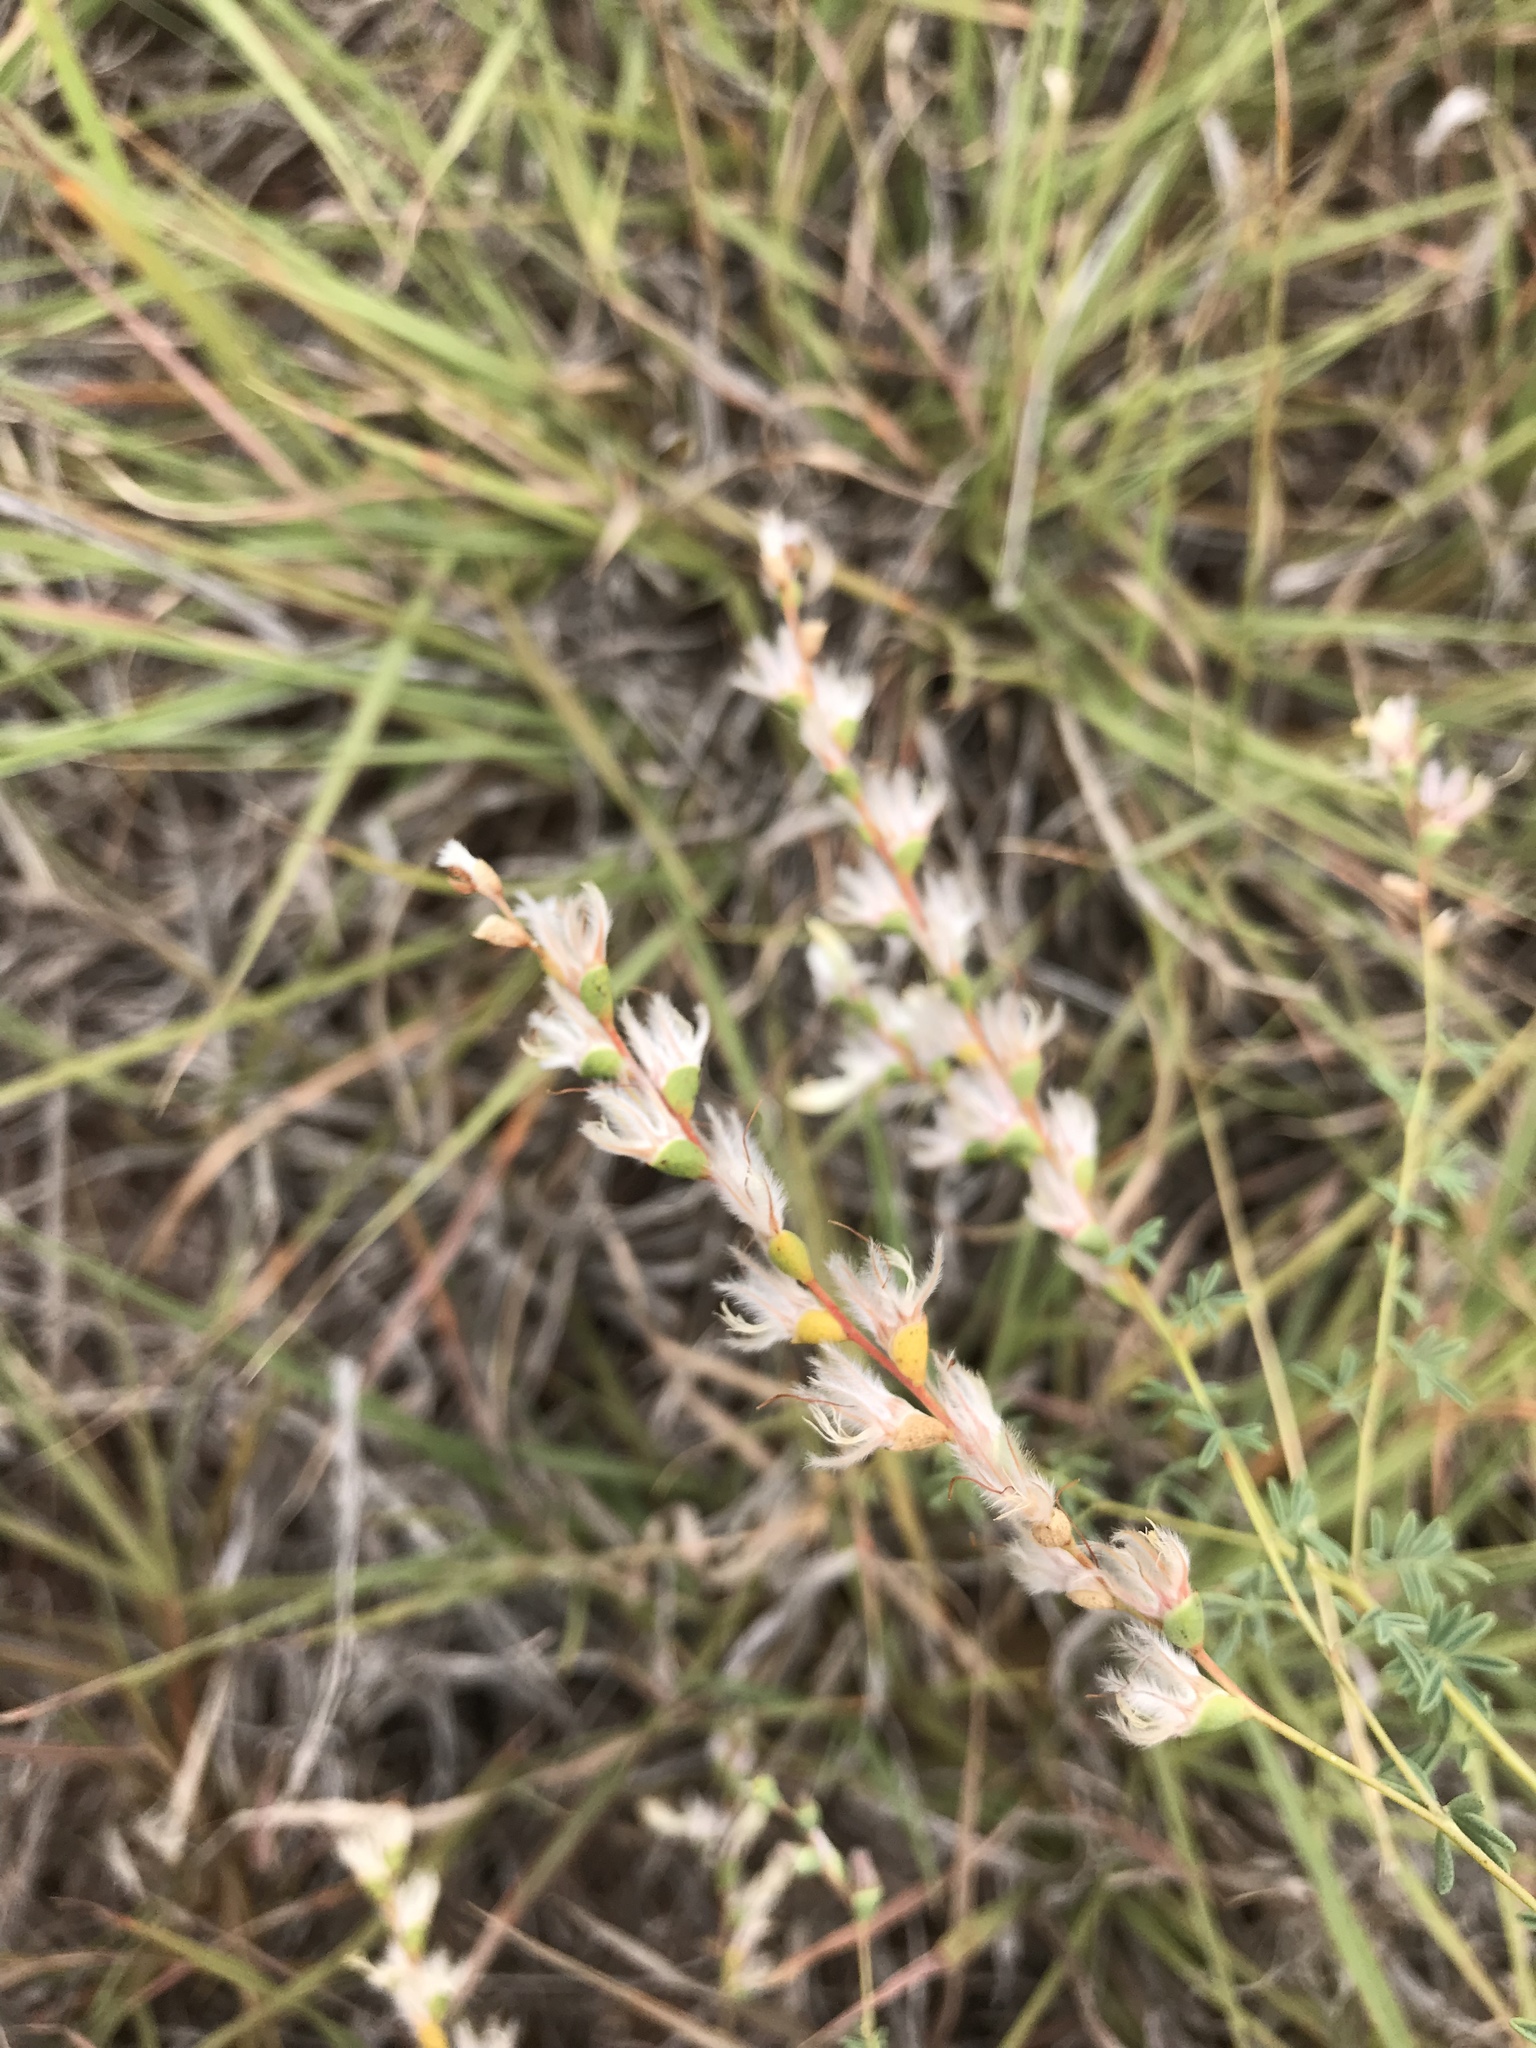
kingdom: Plantae
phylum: Tracheophyta
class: Magnoliopsida
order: Fabales
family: Fabaceae
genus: Dalea
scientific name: Dalea enneandra
